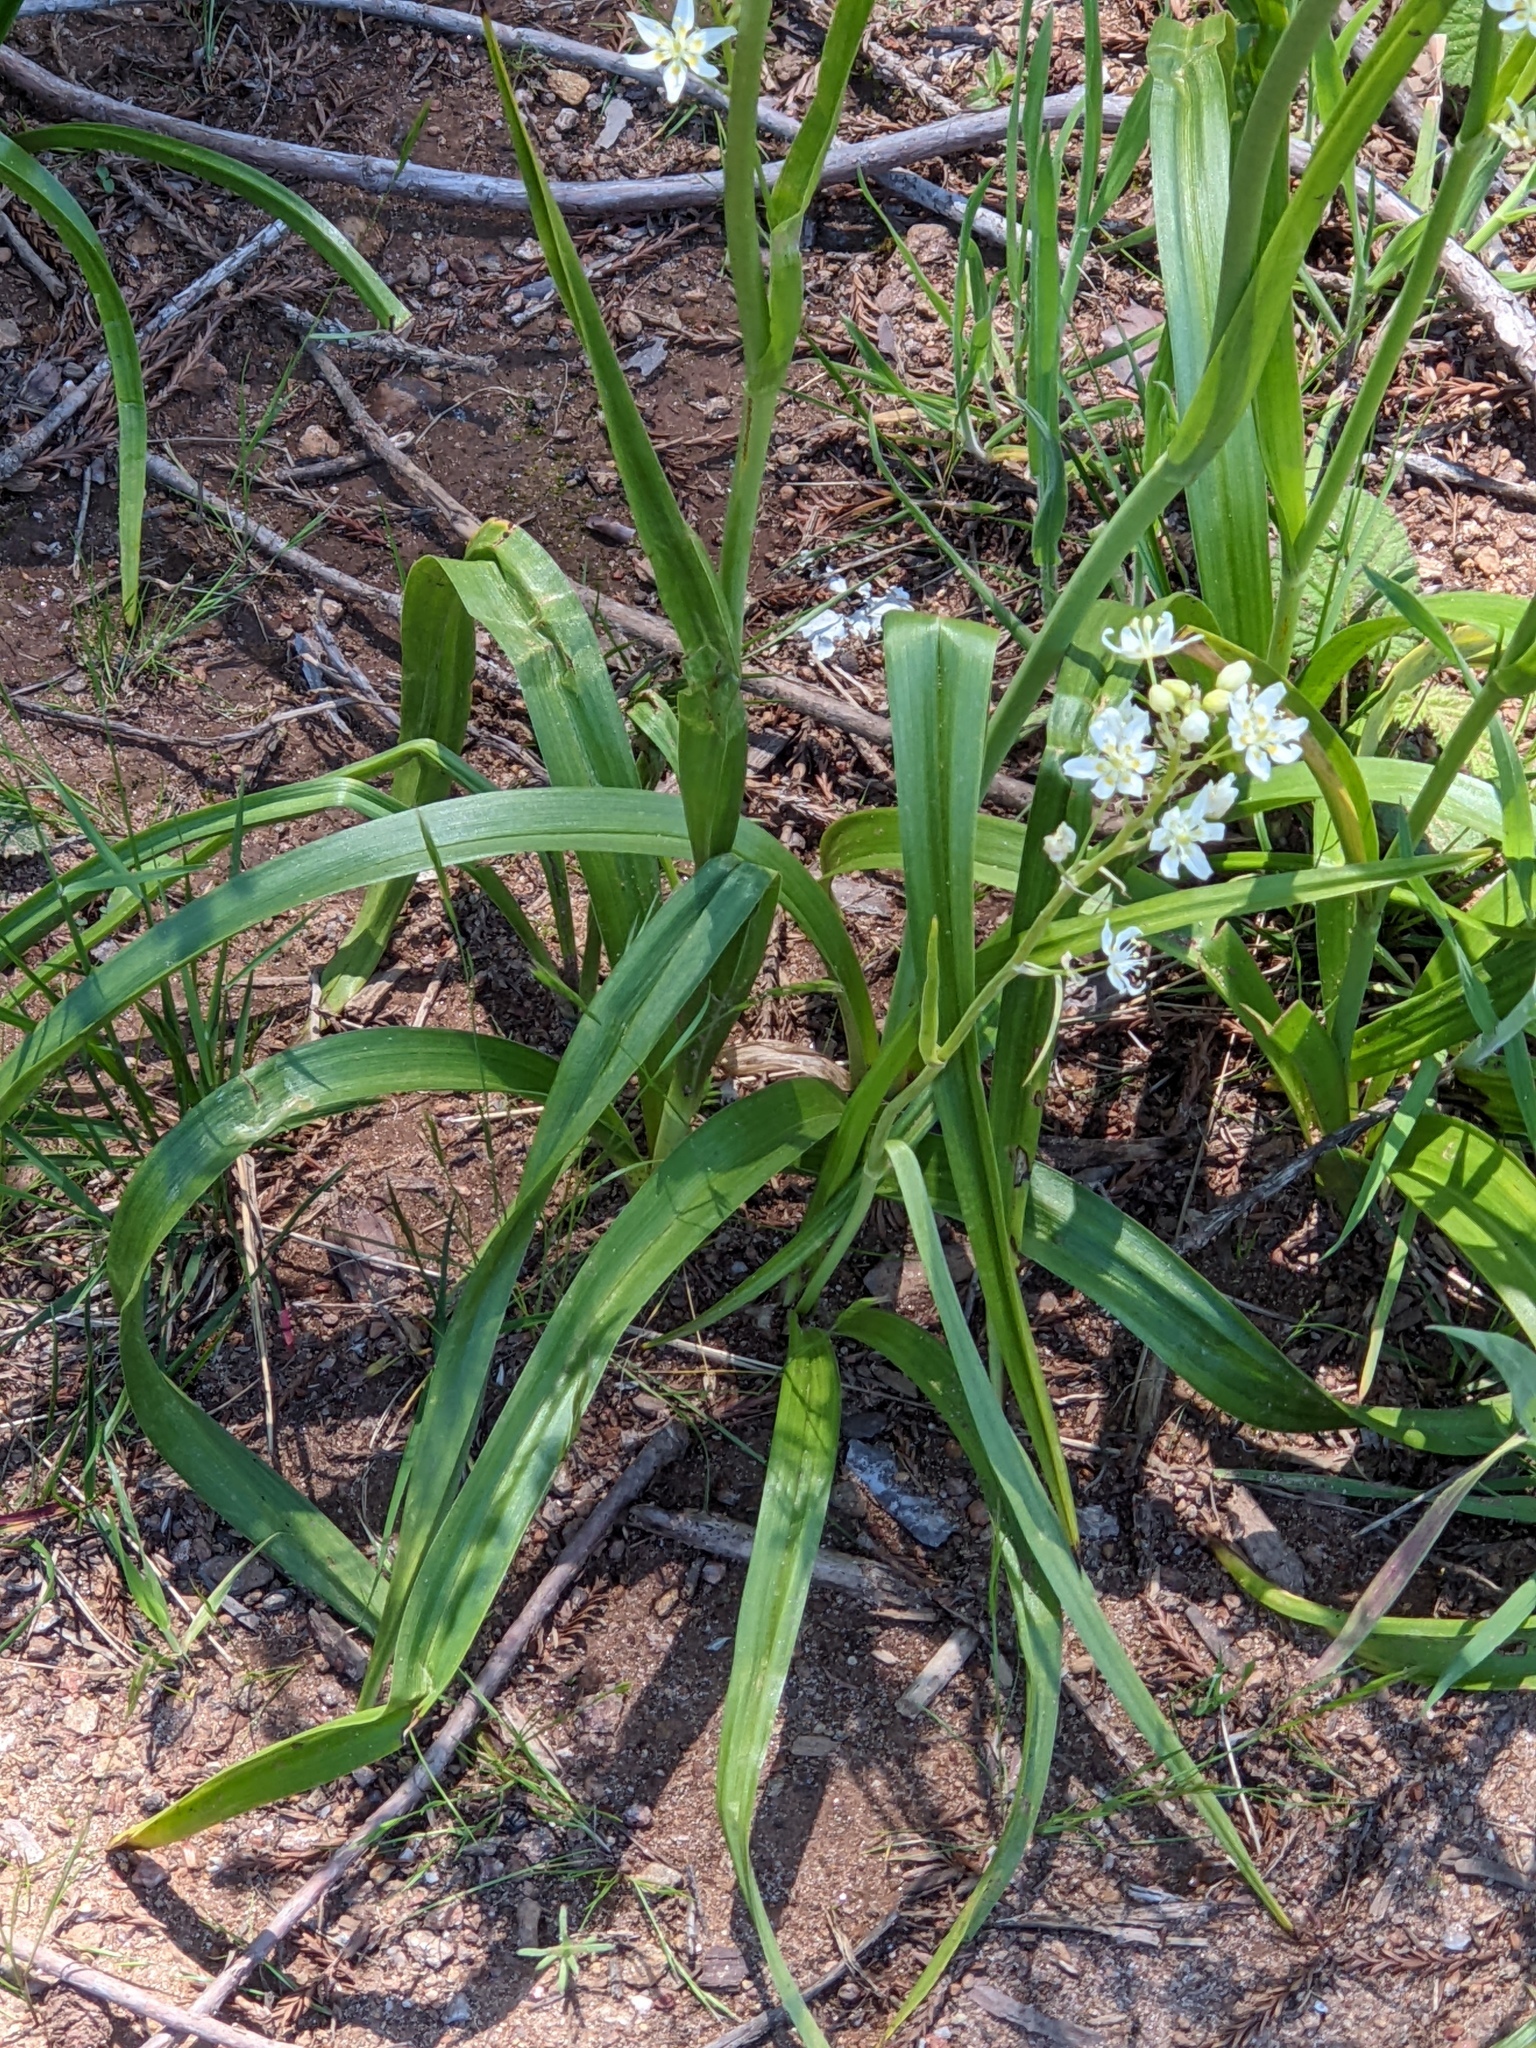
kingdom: Plantae
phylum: Tracheophyta
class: Liliopsida
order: Liliales
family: Melanthiaceae
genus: Toxicoscordion
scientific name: Toxicoscordion fremontii
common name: Fremont's death camas
